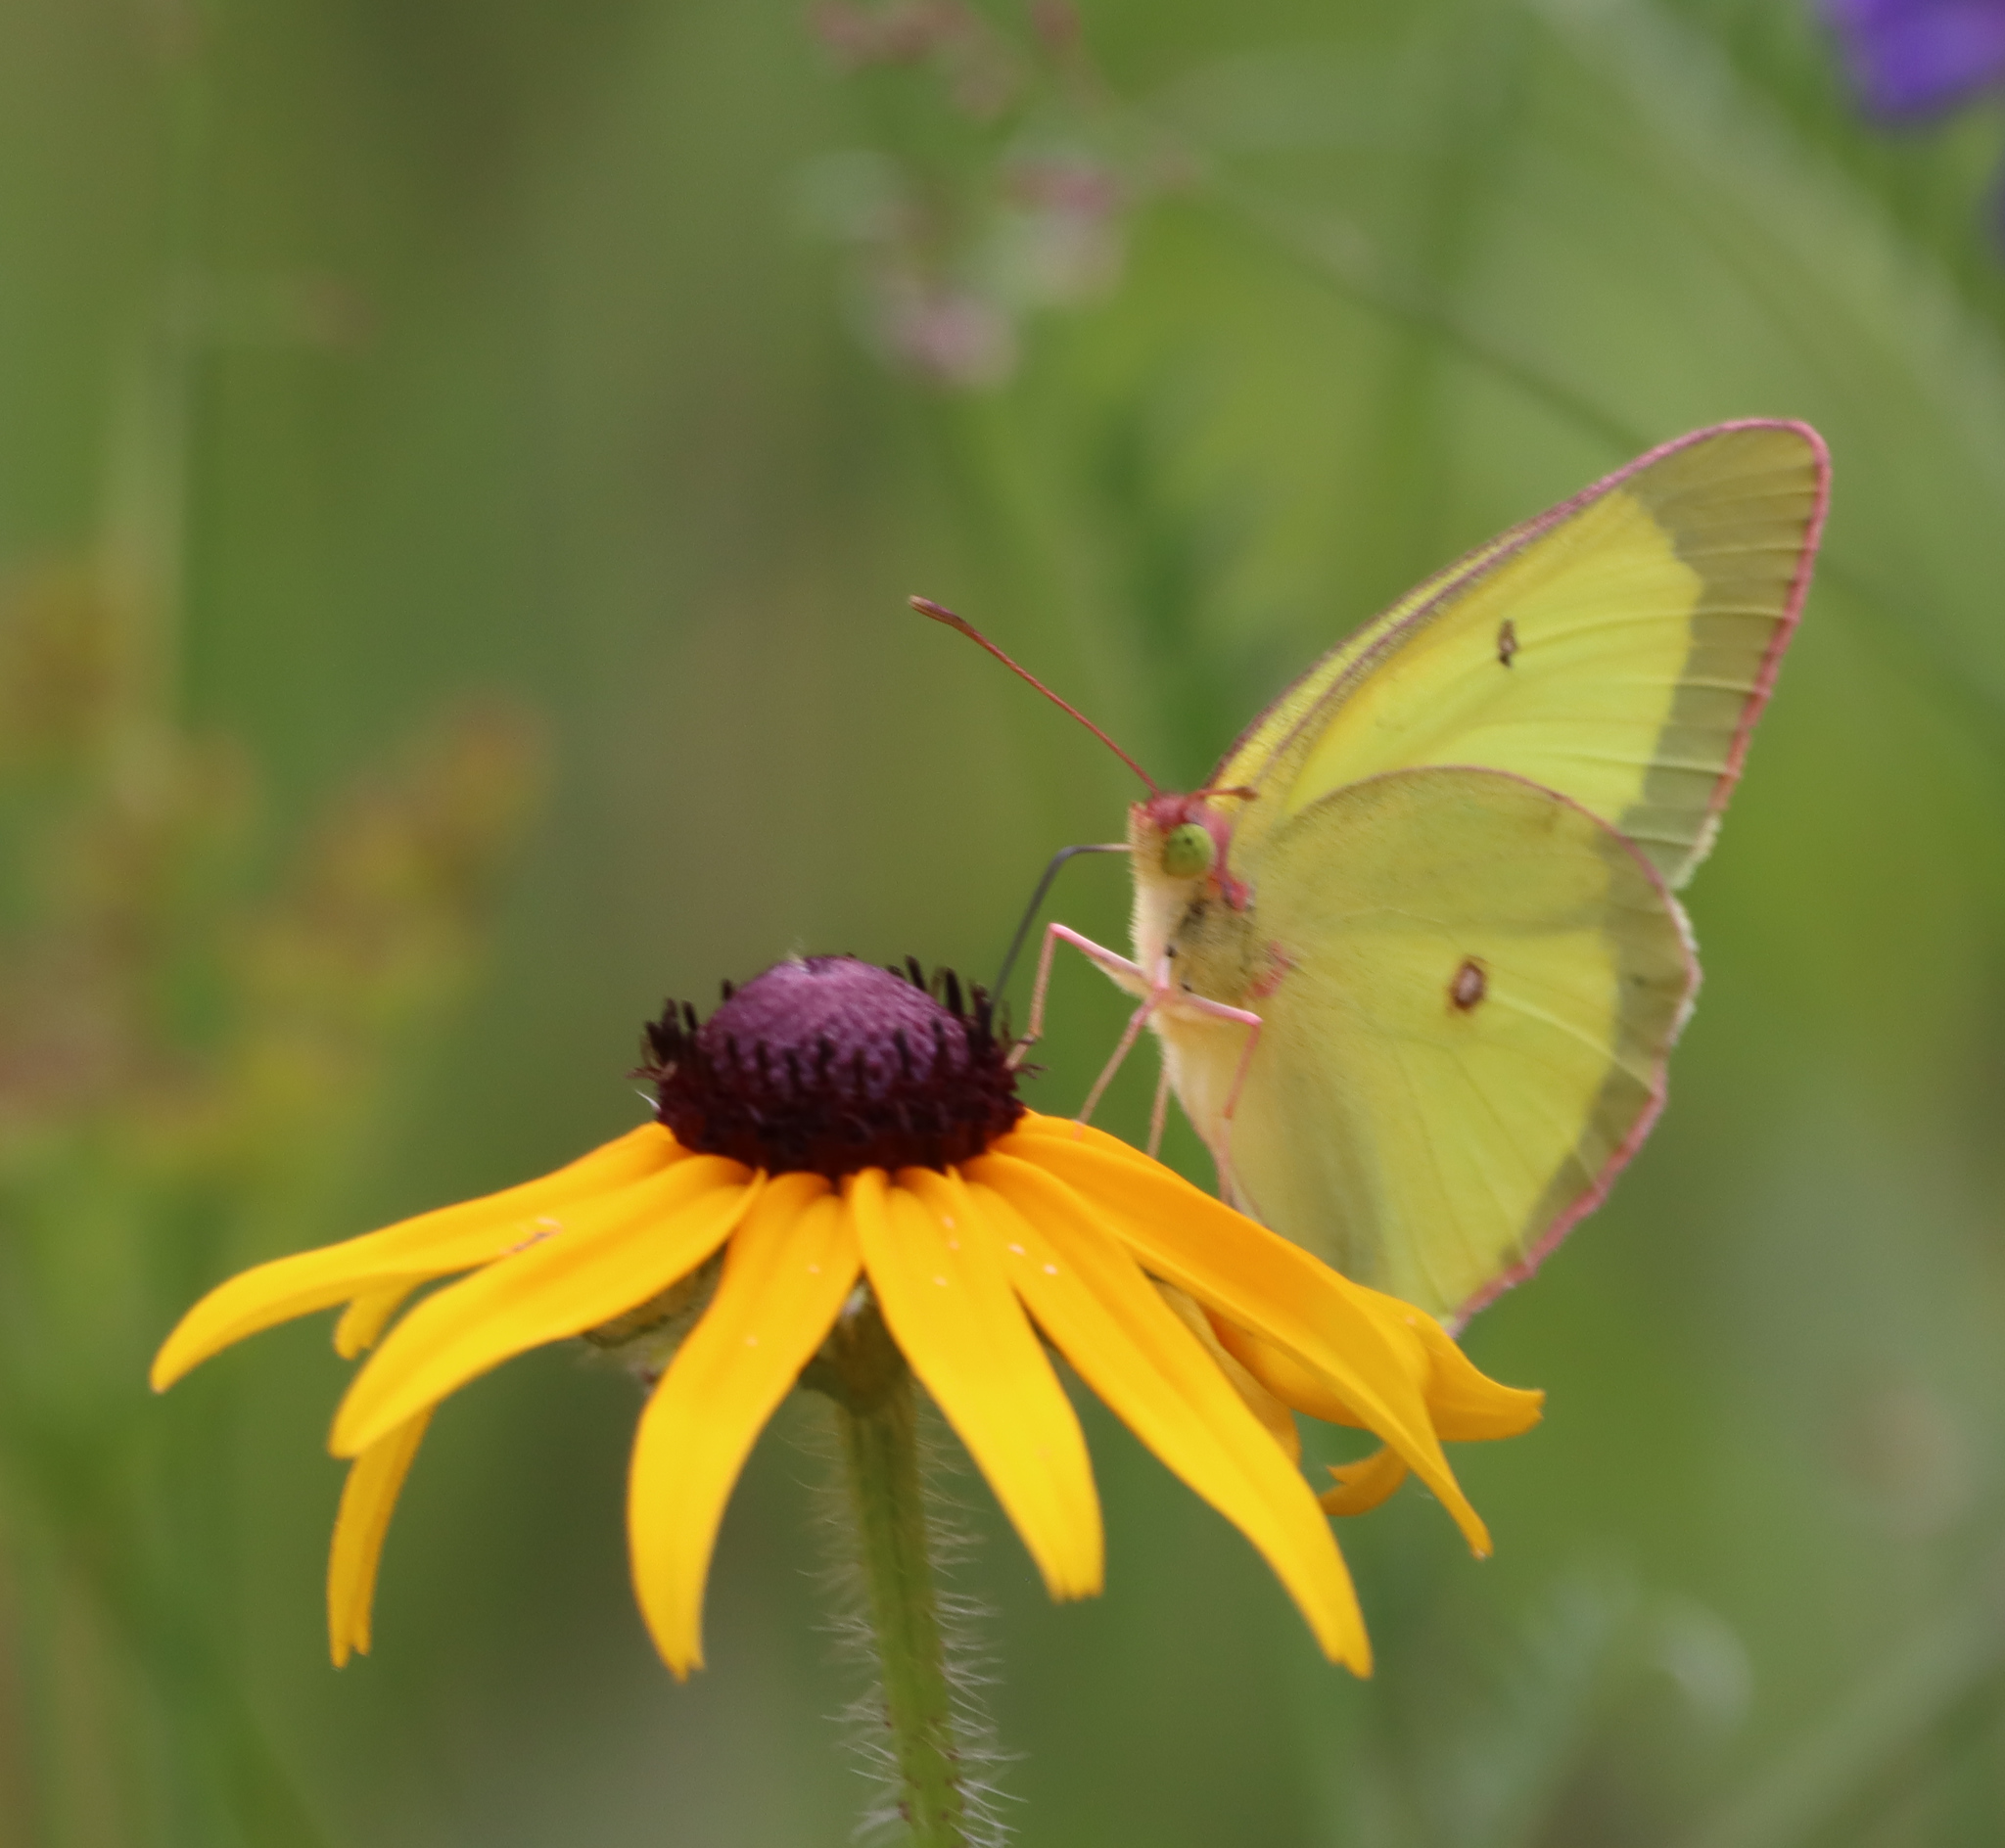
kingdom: Animalia
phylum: Arthropoda
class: Insecta
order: Lepidoptera
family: Pieridae
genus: Colias
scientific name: Colias interior
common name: Pink-edged sulphur
